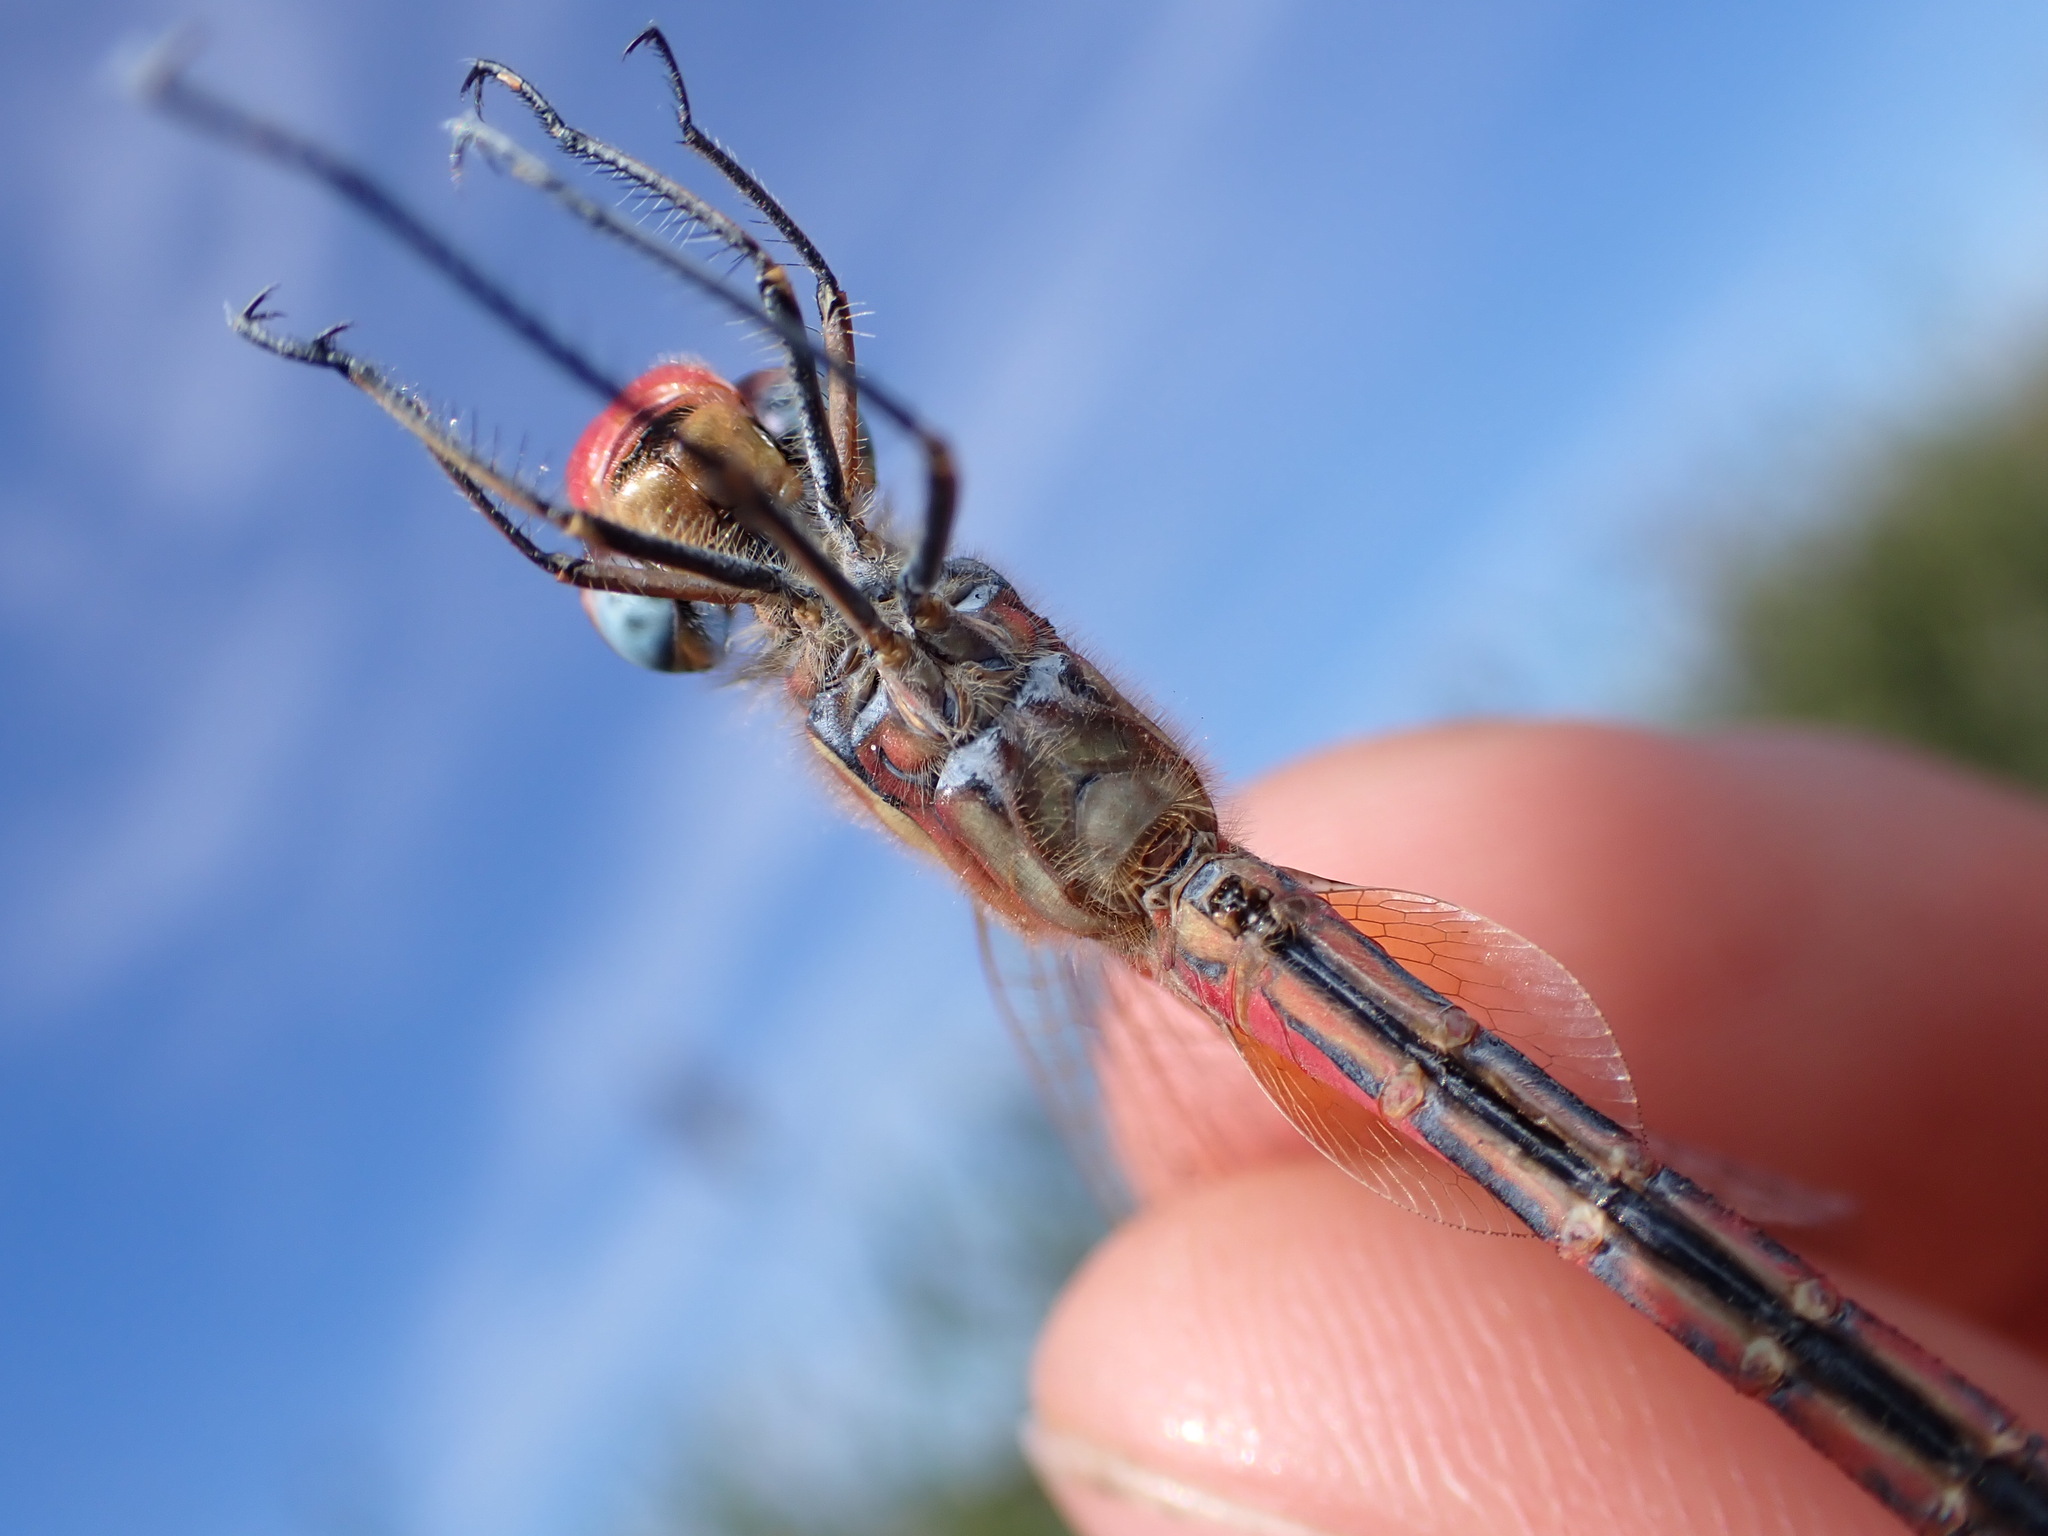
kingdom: Animalia
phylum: Arthropoda
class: Insecta
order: Odonata
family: Libellulidae
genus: Sympetrum
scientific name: Sympetrum fonscolombii
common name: Red-veined darter
